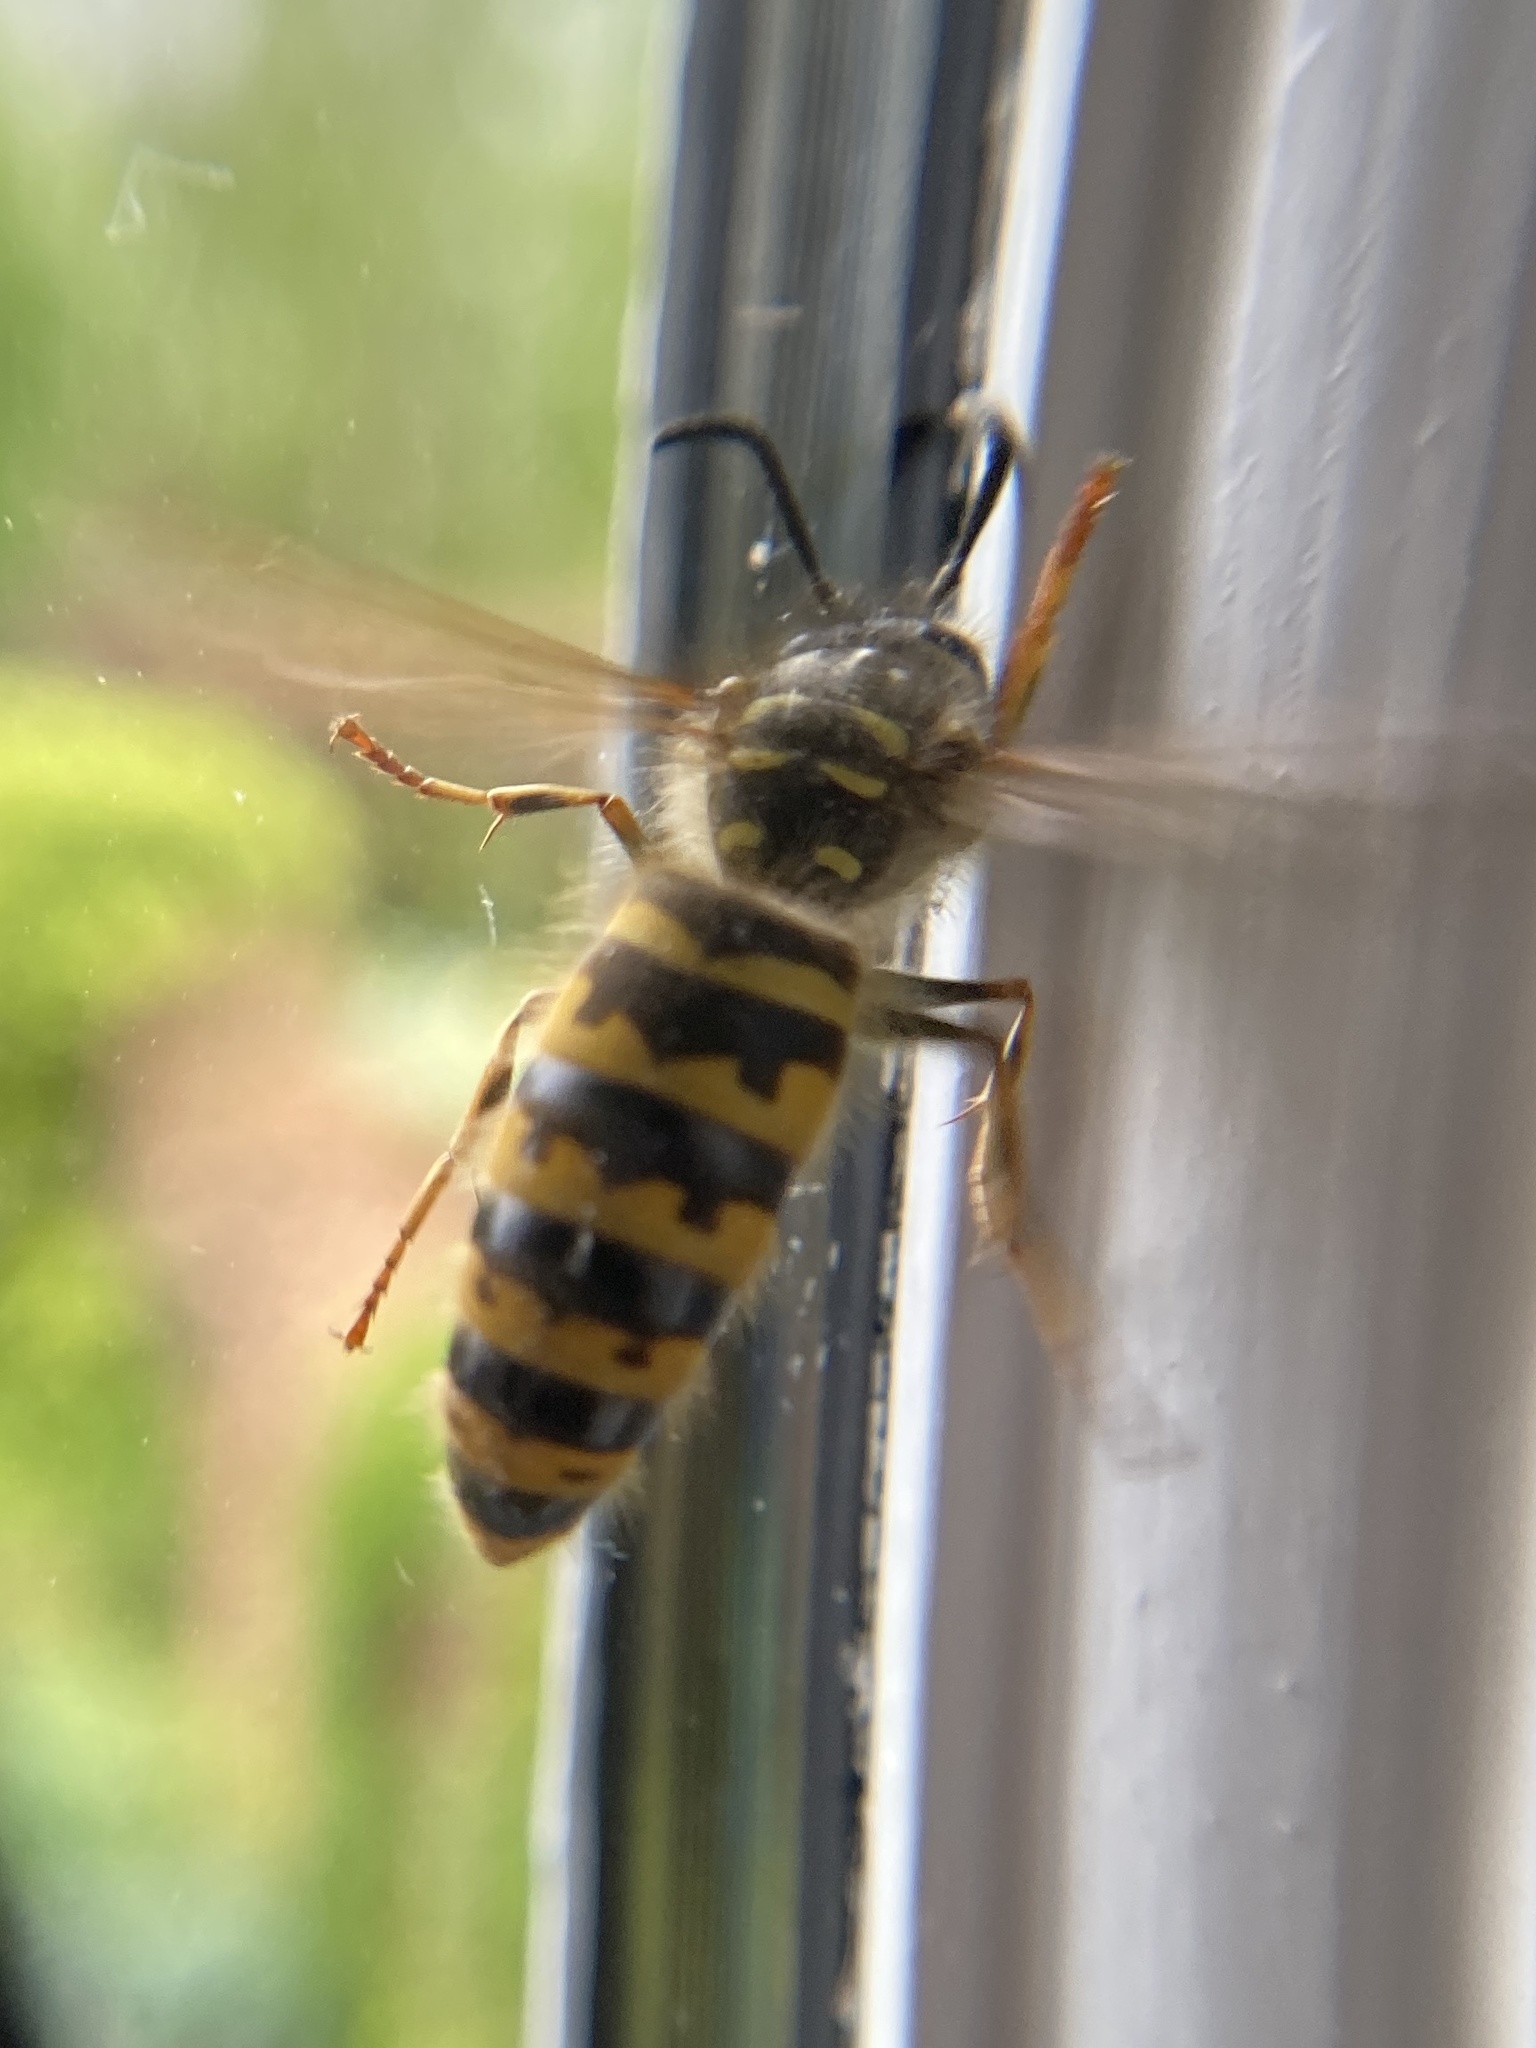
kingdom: Animalia
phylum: Arthropoda
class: Insecta
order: Hymenoptera
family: Vespidae
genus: Vespula
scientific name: Vespula vulgaris
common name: Common wasp
